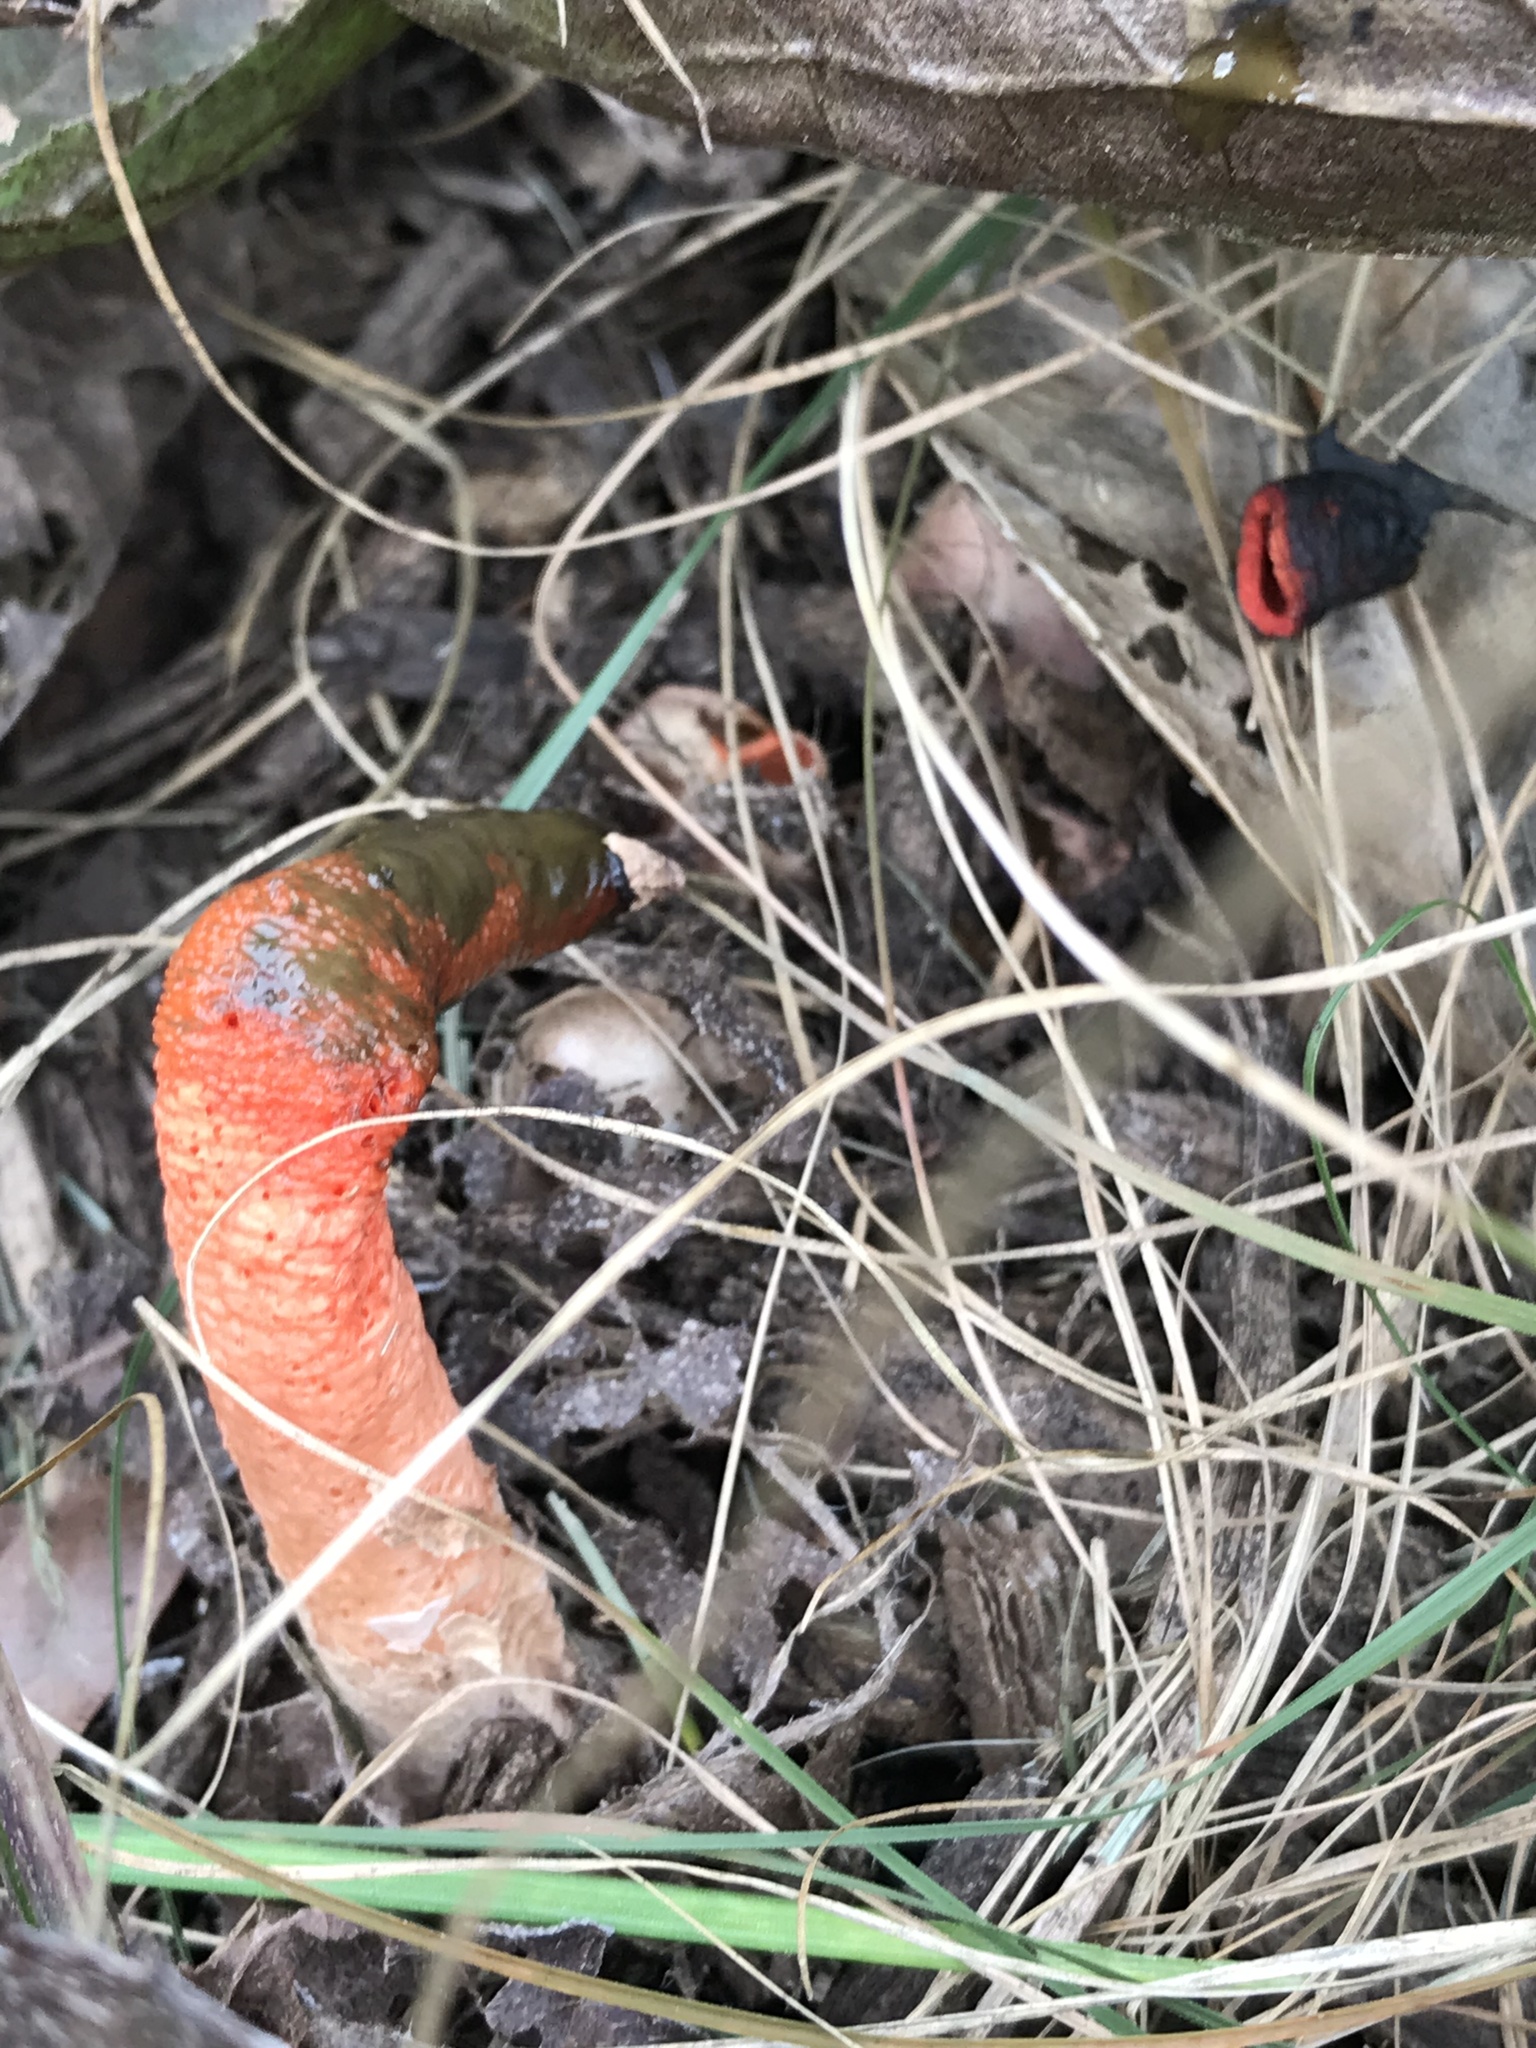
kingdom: Fungi
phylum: Basidiomycota
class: Agaricomycetes
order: Phallales
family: Phallaceae
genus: Mutinus
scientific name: Mutinus elegans
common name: Devil's dipstick
